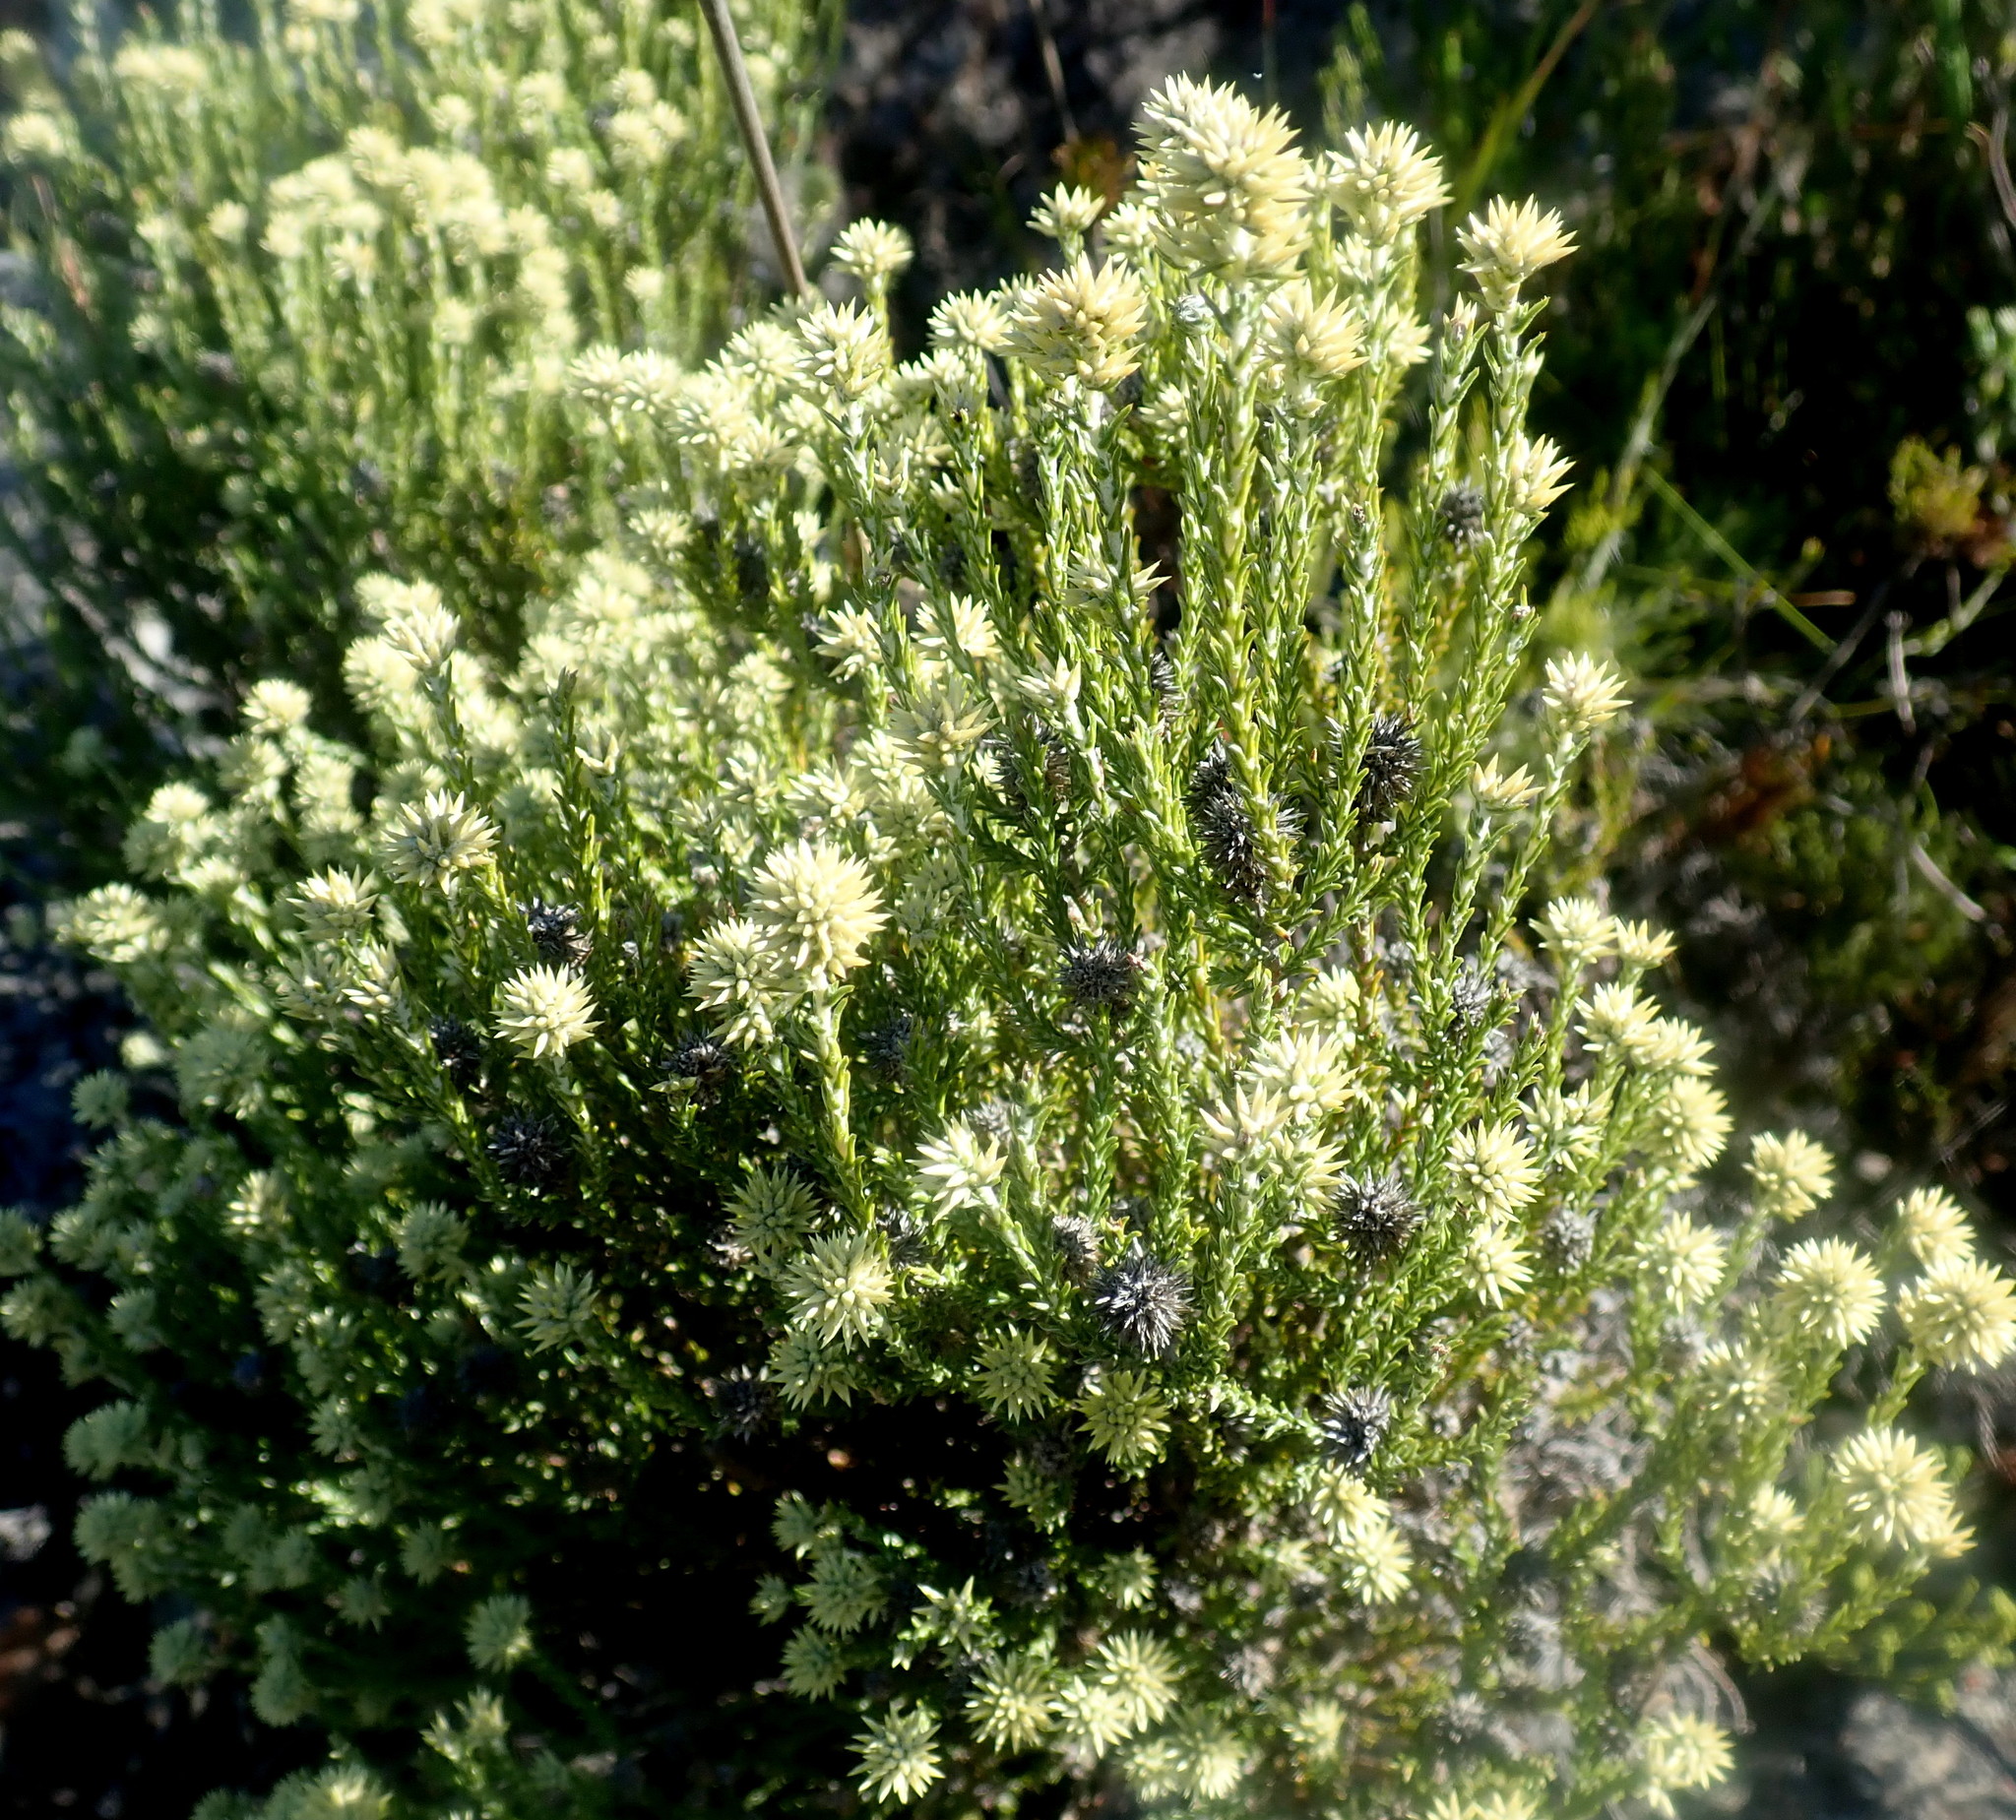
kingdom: Plantae
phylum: Tracheophyta
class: Magnoliopsida
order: Asterales
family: Asteraceae
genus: Seriphium
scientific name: Seriphium spirale
